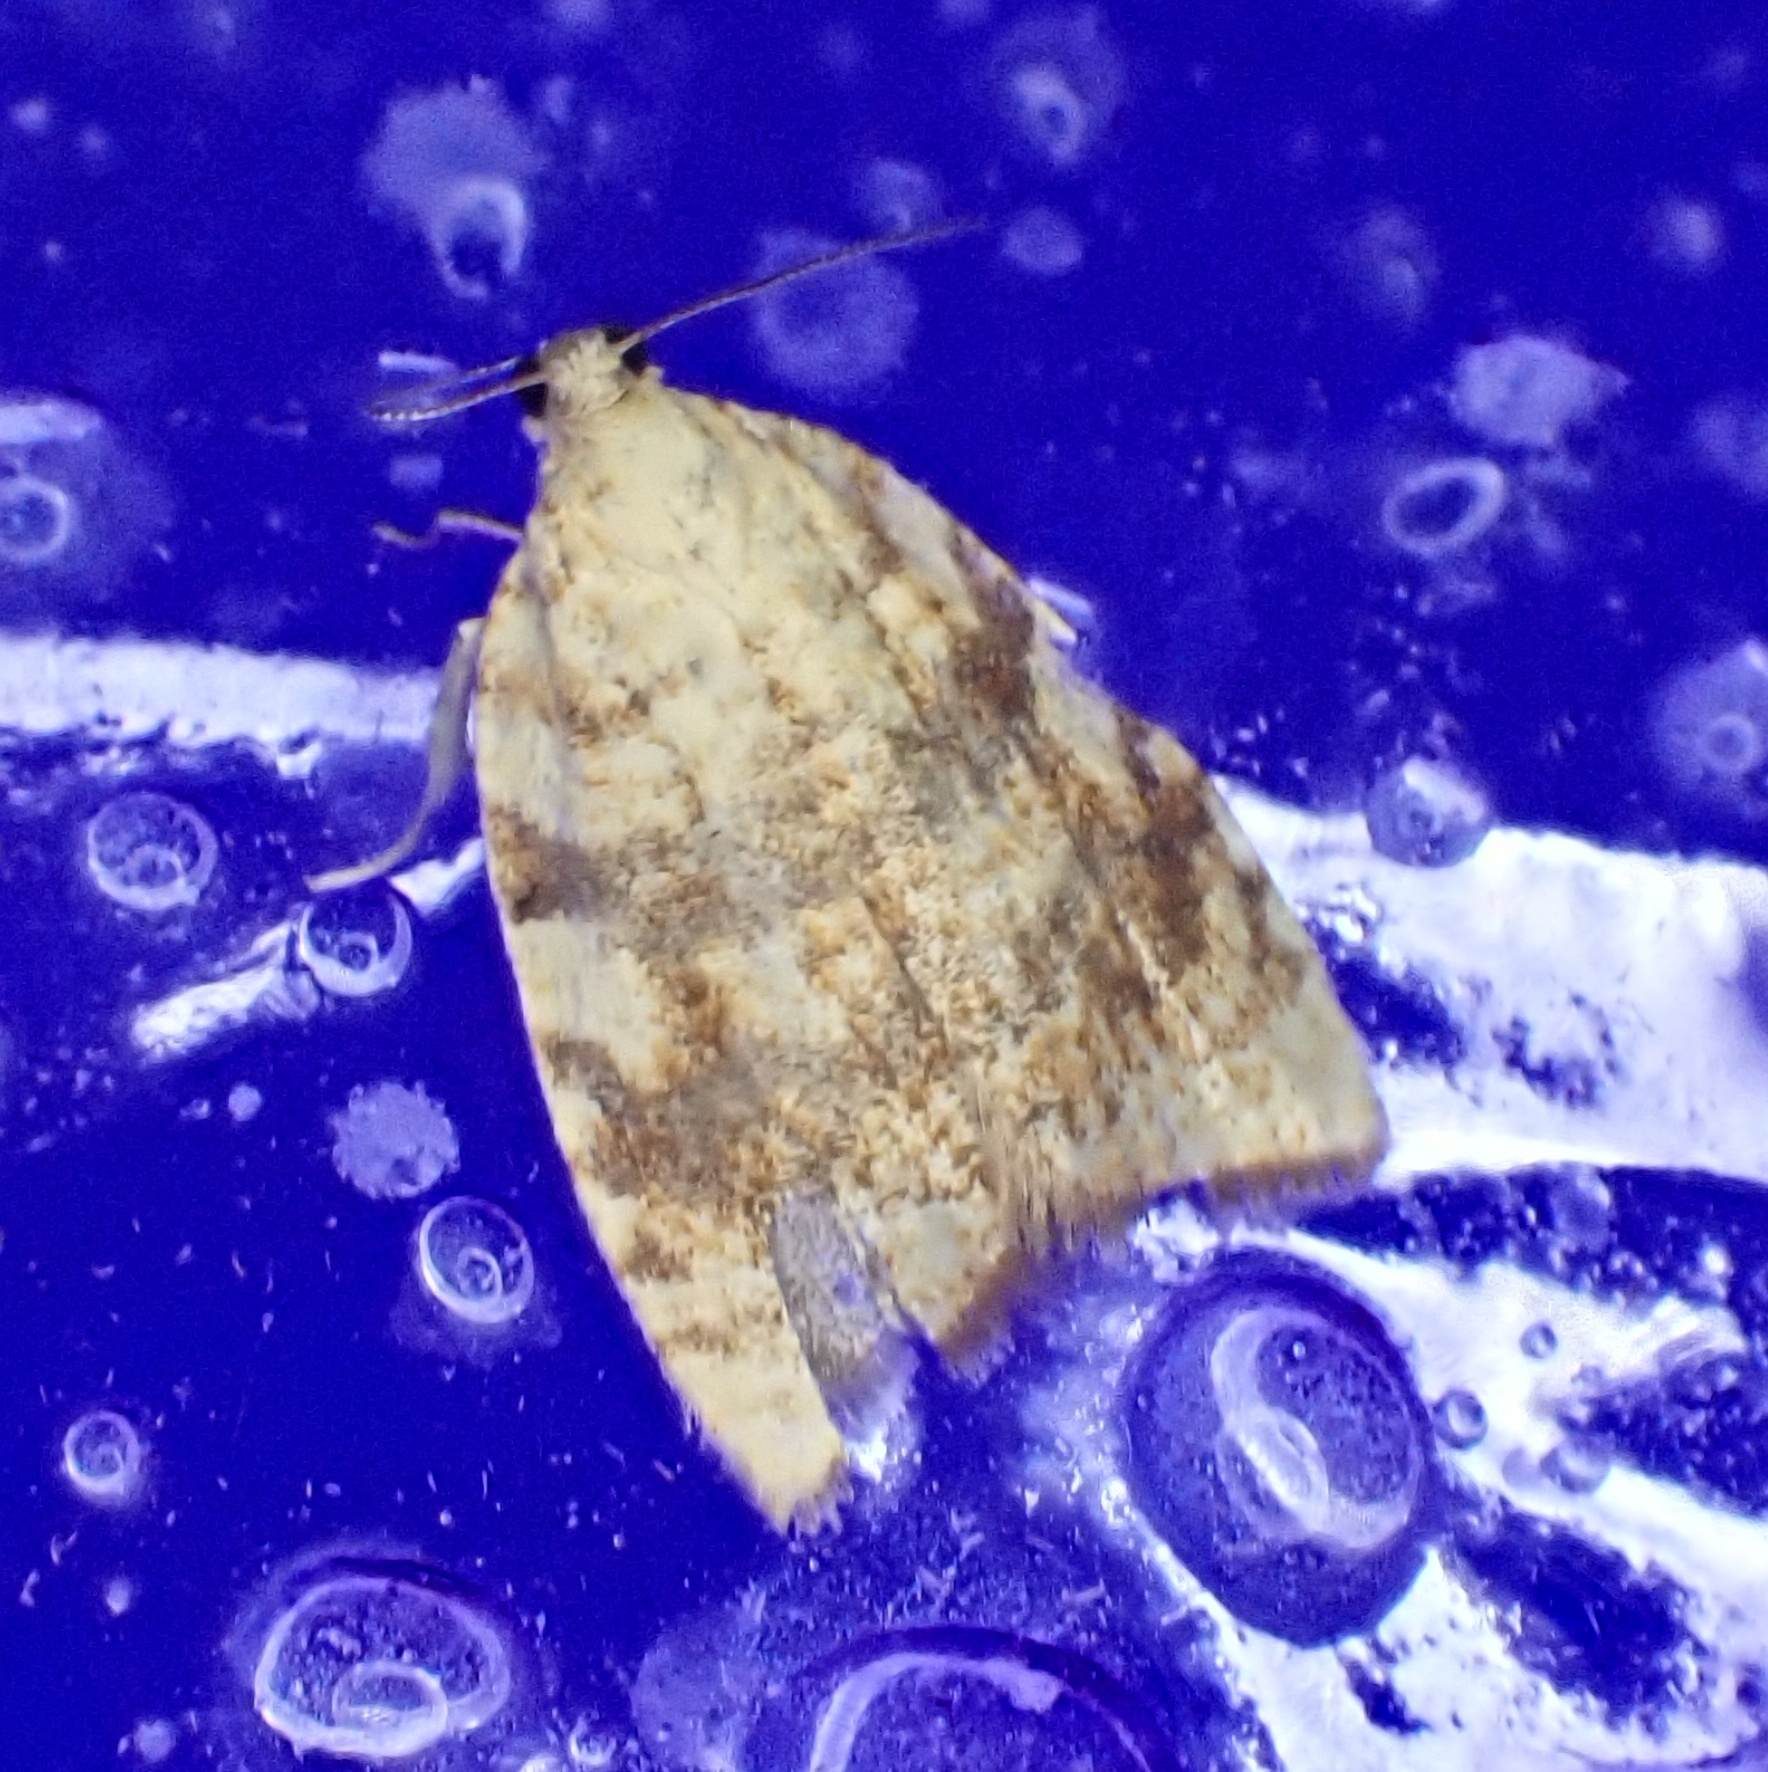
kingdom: Animalia
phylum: Arthropoda
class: Insecta
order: Lepidoptera
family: Tortricidae
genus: Aleimma
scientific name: Aleimma loeflingiana
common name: Yellow oak button
